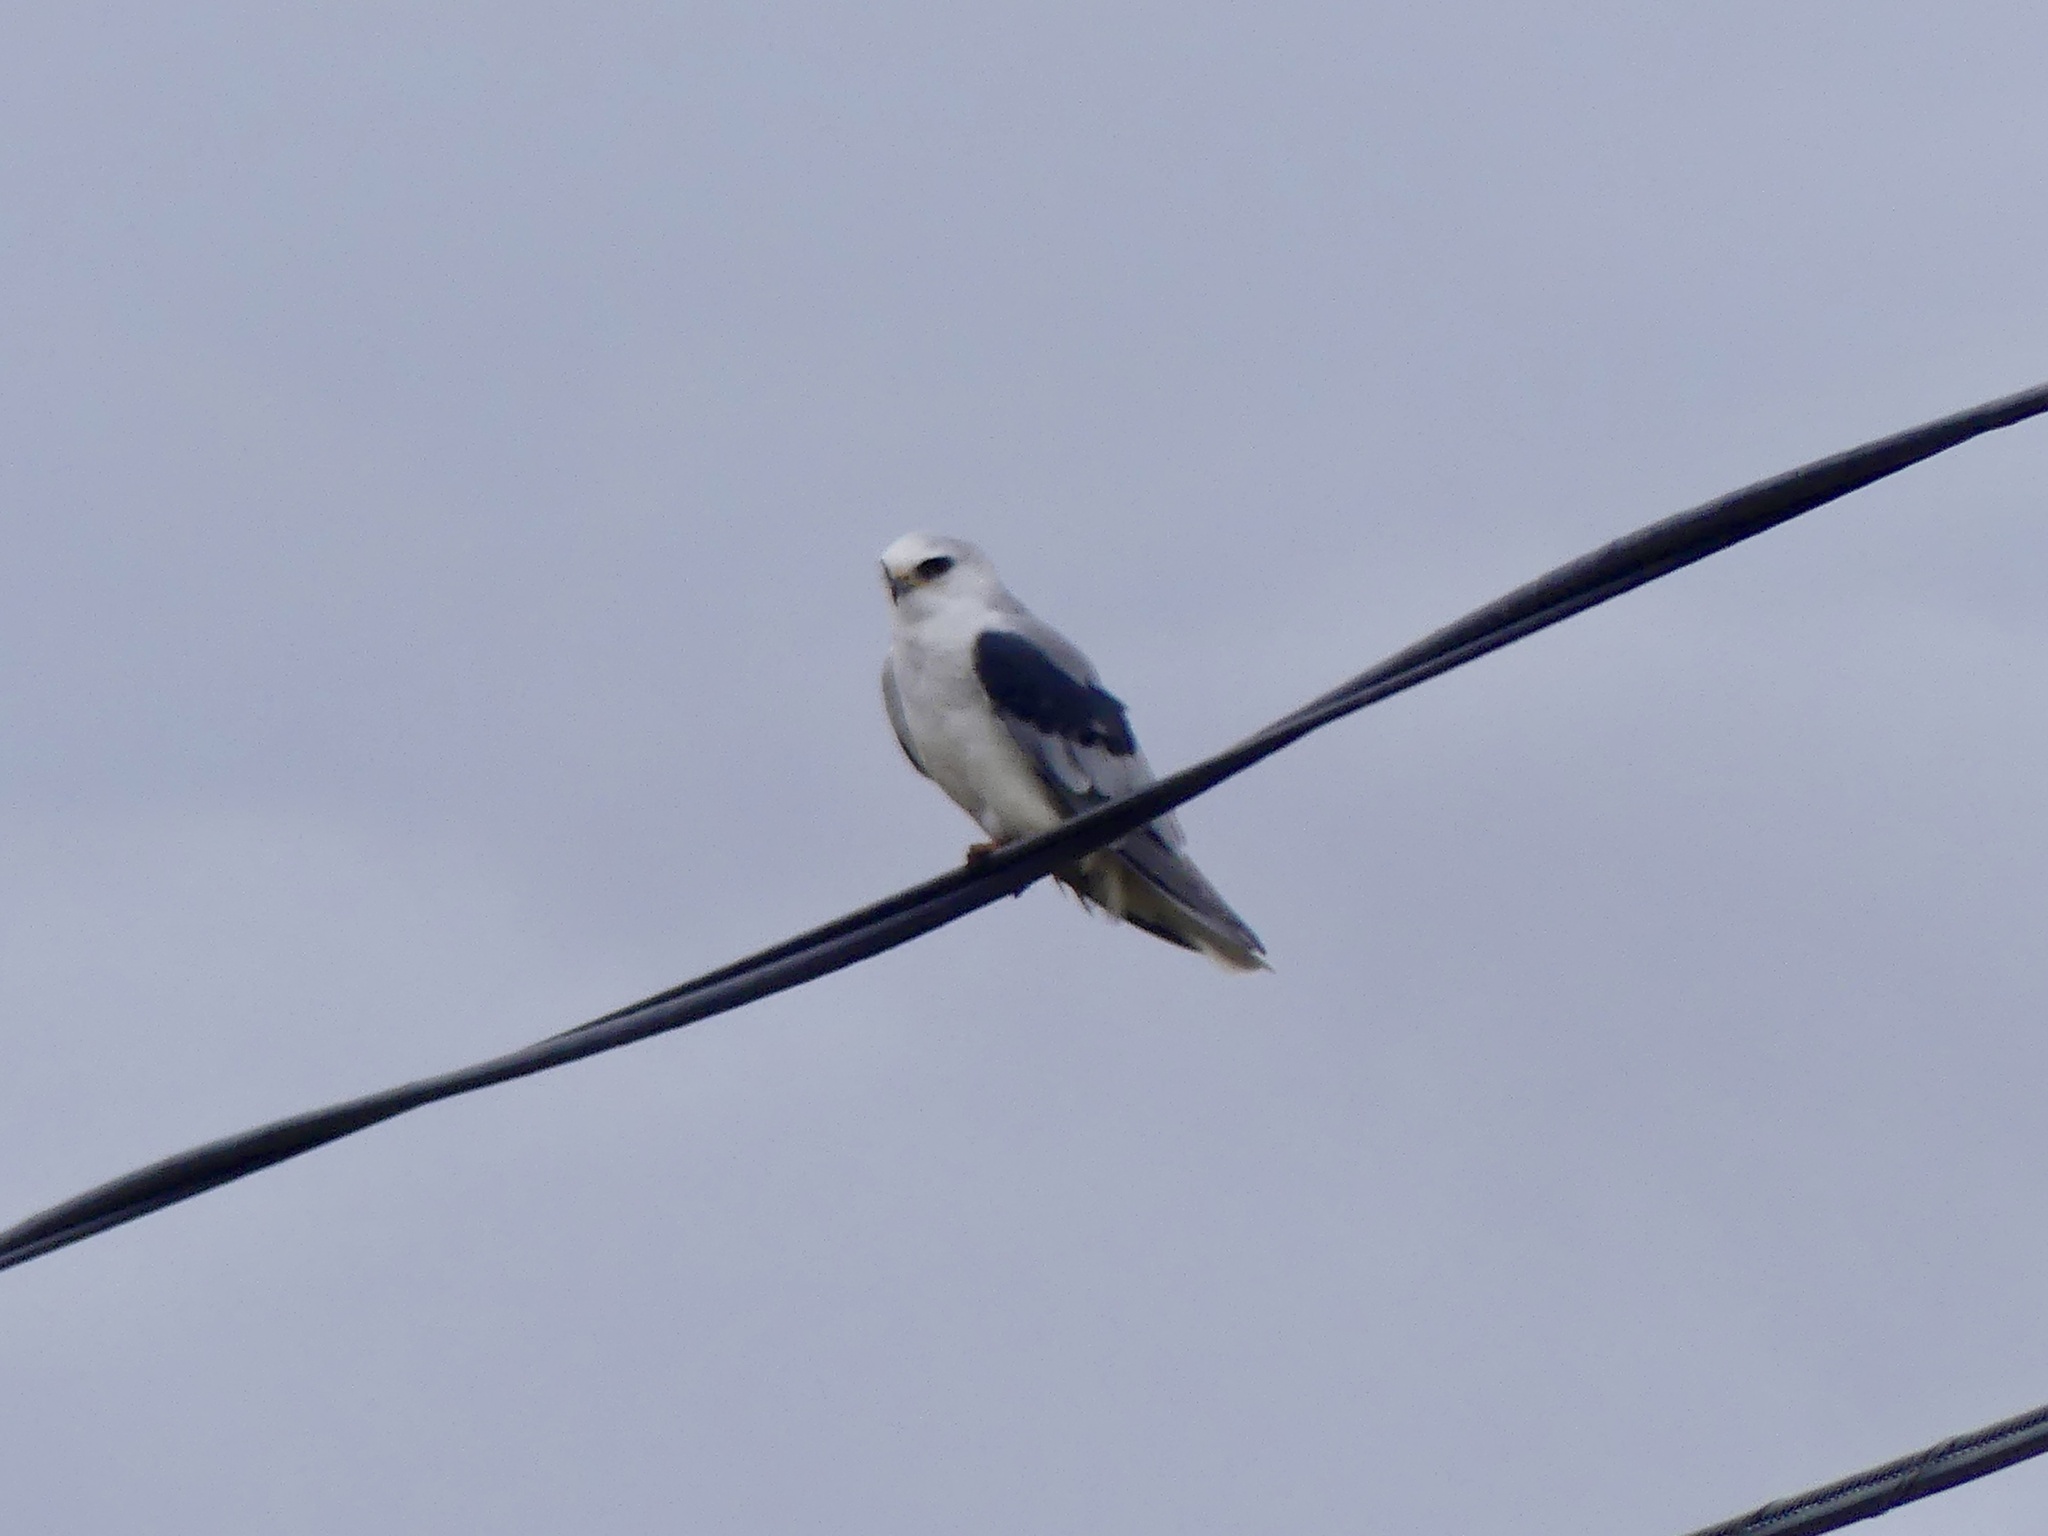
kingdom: Animalia
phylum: Chordata
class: Aves
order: Accipitriformes
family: Accipitridae
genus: Elanus
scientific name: Elanus leucurus
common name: White-tailed kite
